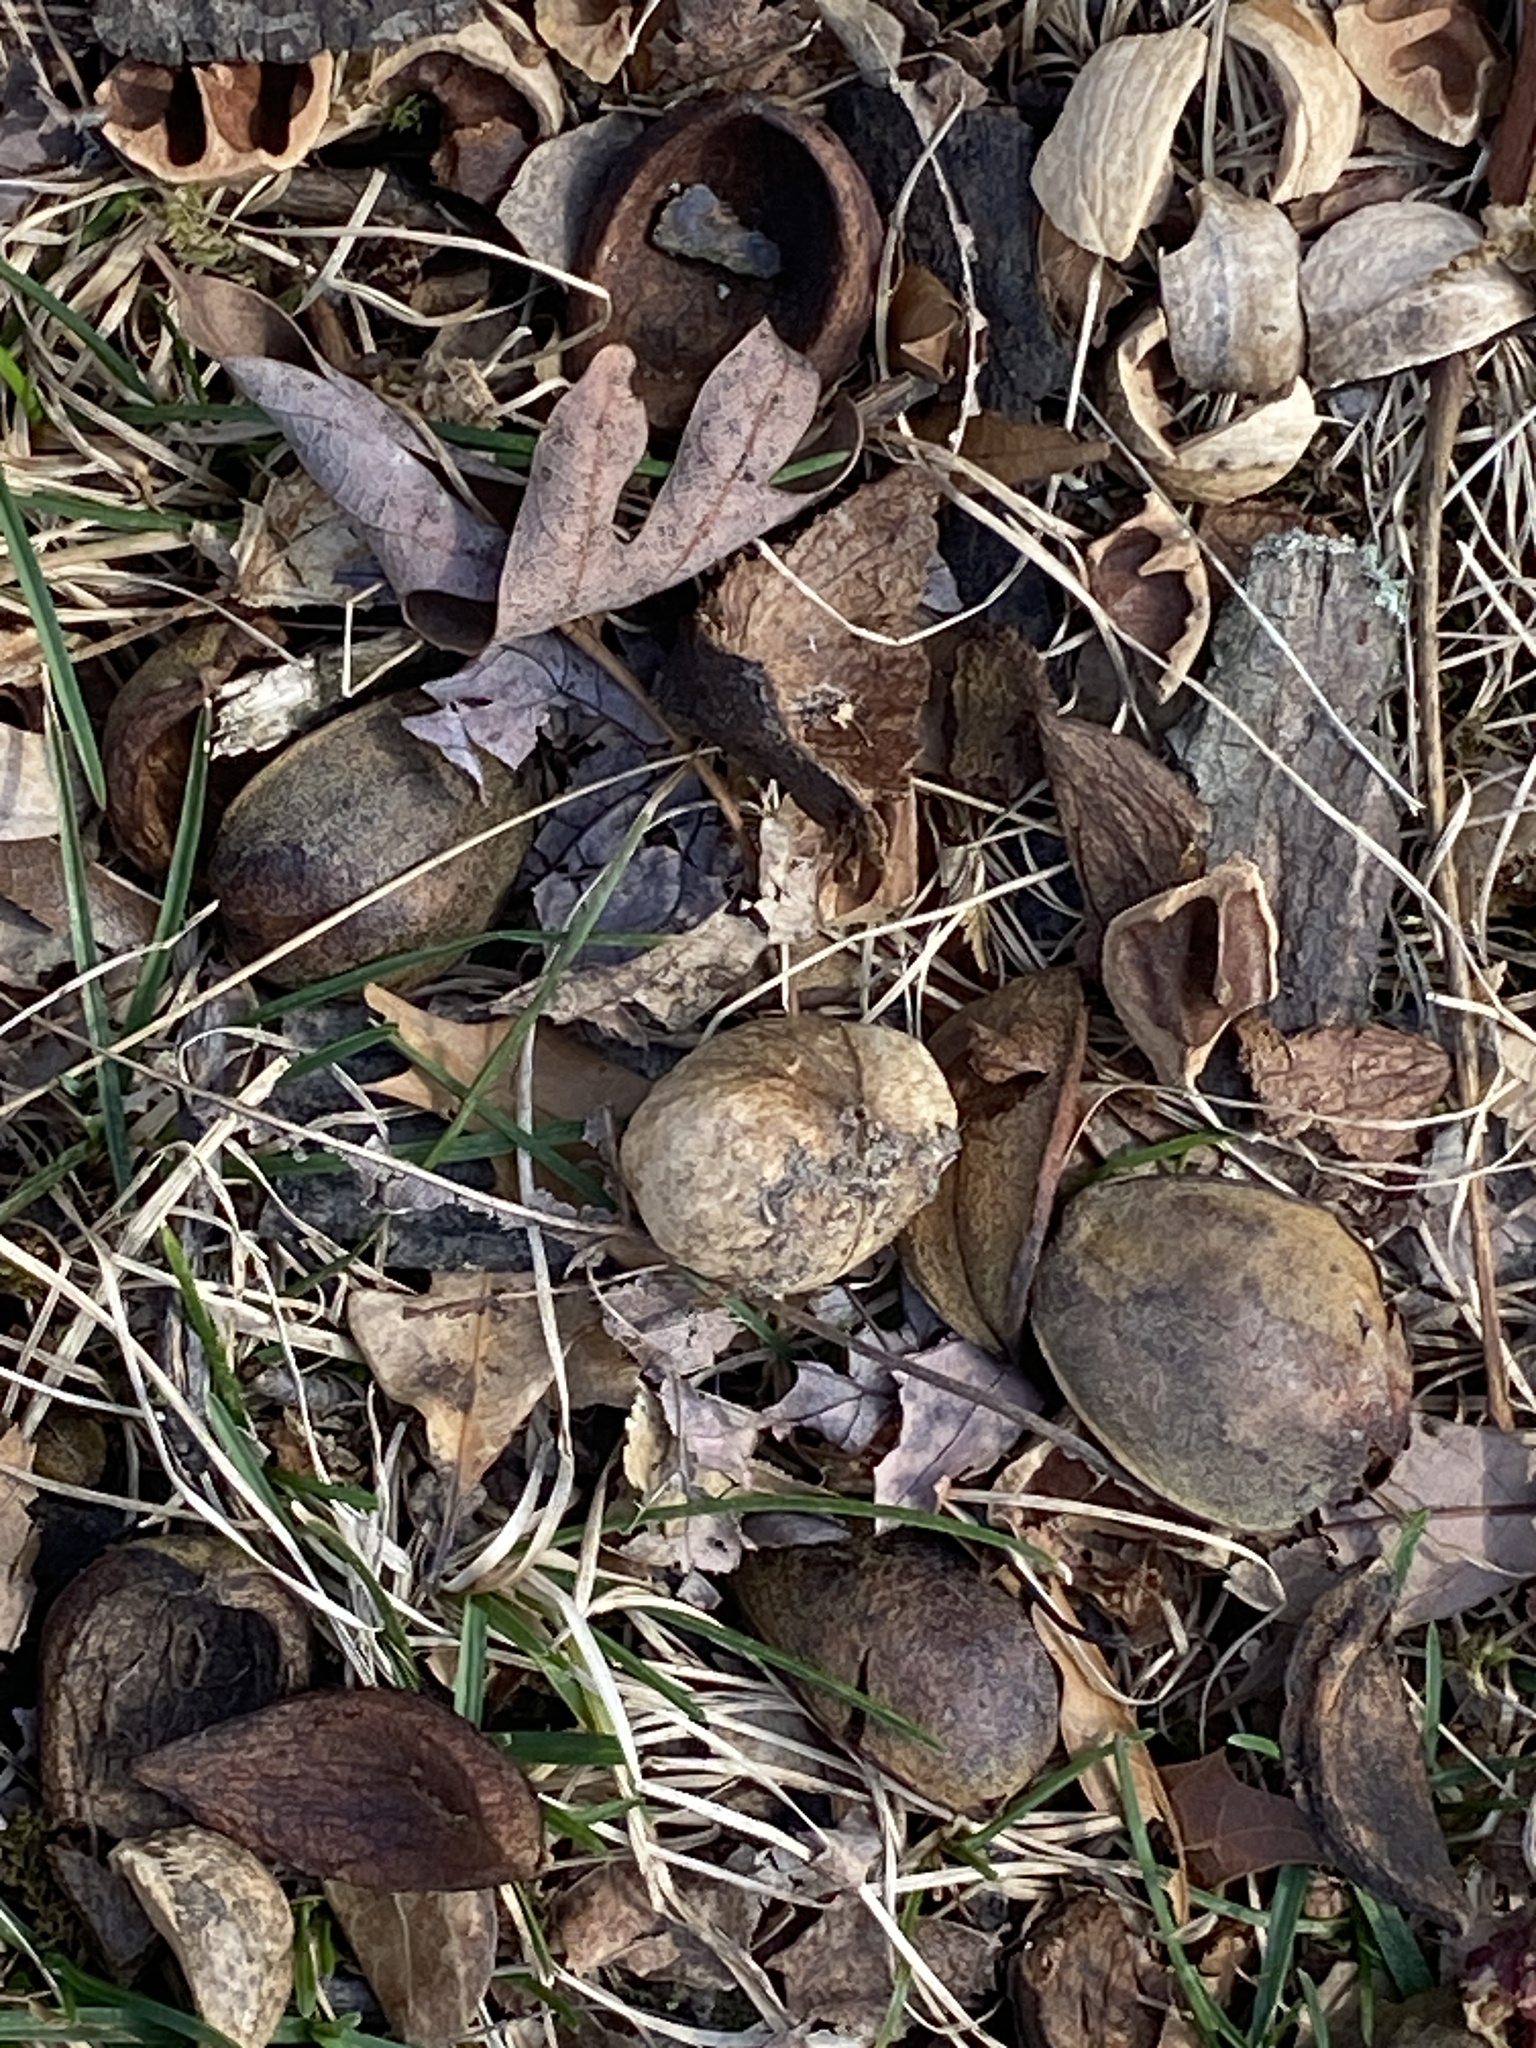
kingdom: Plantae
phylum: Tracheophyta
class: Magnoliopsida
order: Fagales
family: Juglandaceae
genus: Carya
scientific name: Carya ovata
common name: Shagbark hickory
